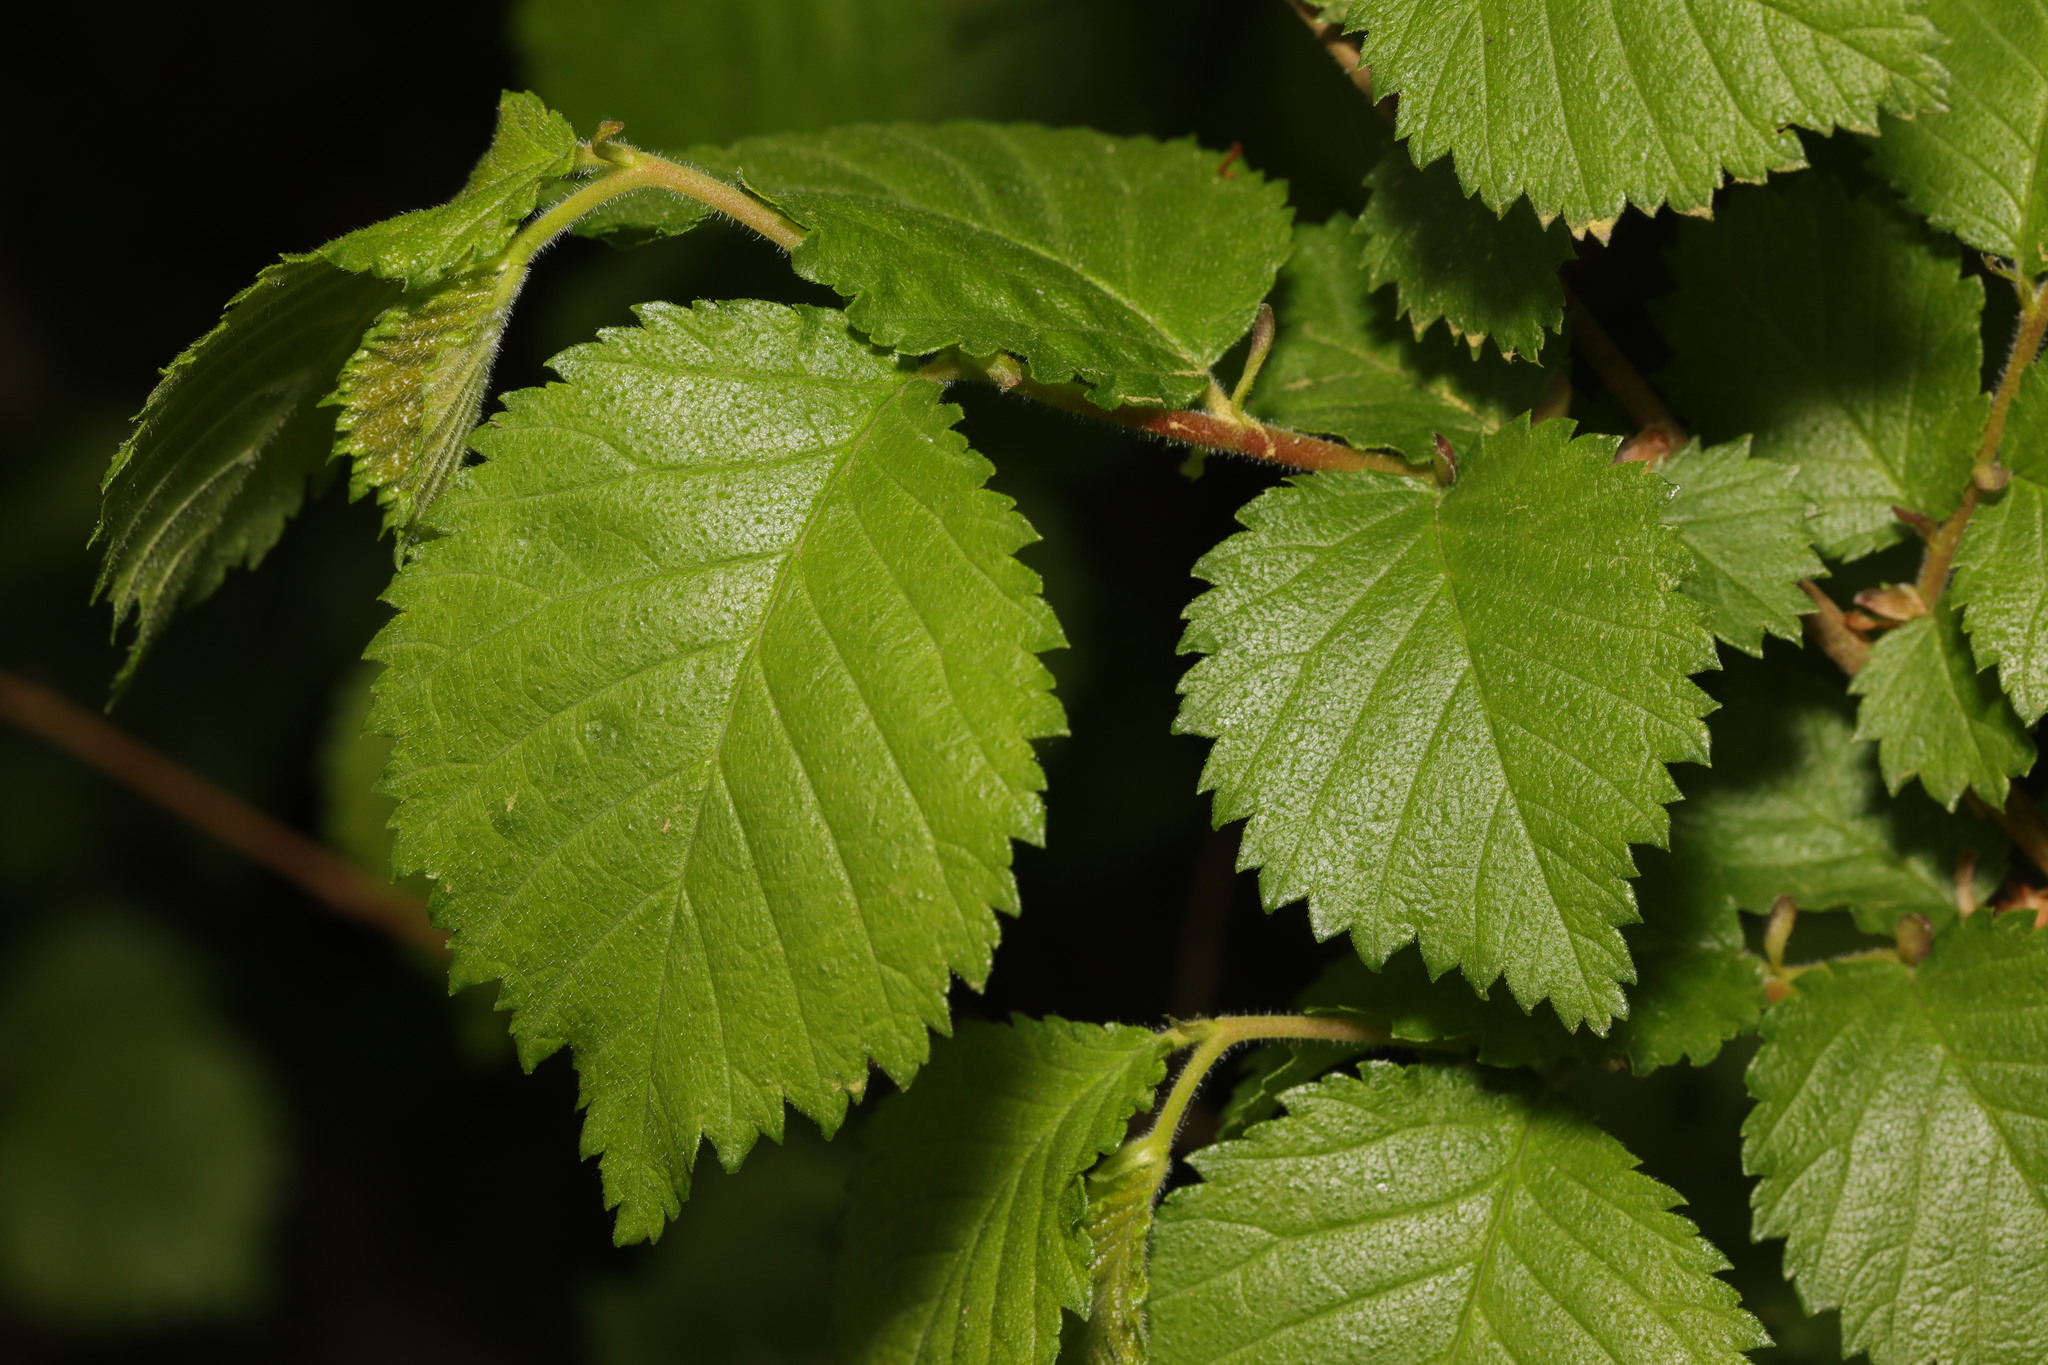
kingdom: Plantae
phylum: Tracheophyta
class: Magnoliopsida
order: Rosales
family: Ulmaceae
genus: Ulmus
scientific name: Ulmus minor
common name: Small-leaved elm
